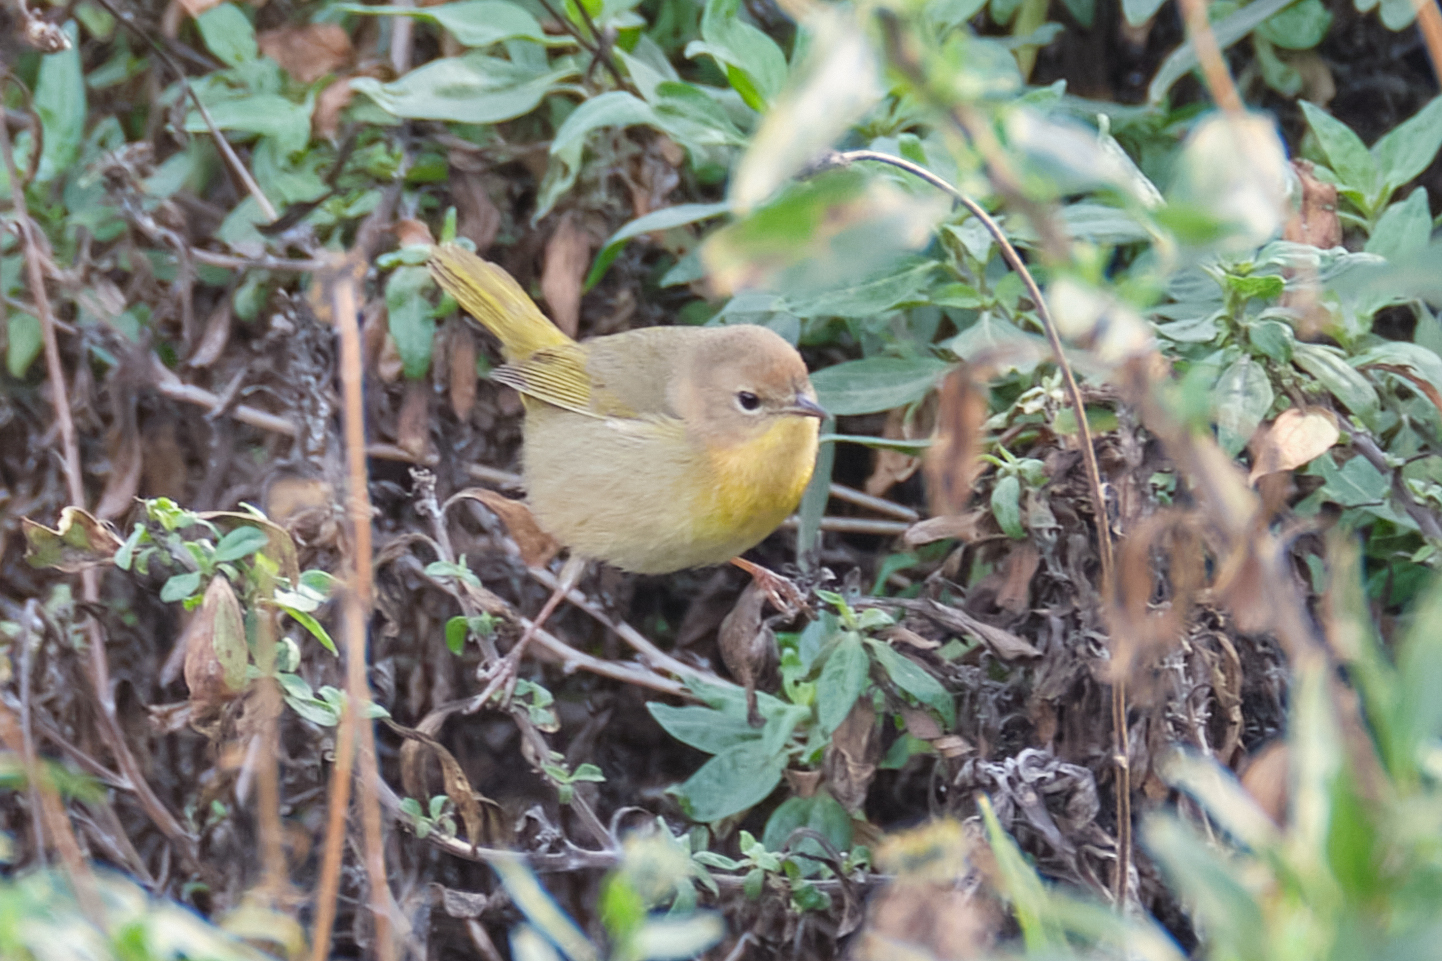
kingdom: Animalia
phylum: Chordata
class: Aves
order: Passeriformes
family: Parulidae
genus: Geothlypis
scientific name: Geothlypis trichas
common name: Common yellowthroat
